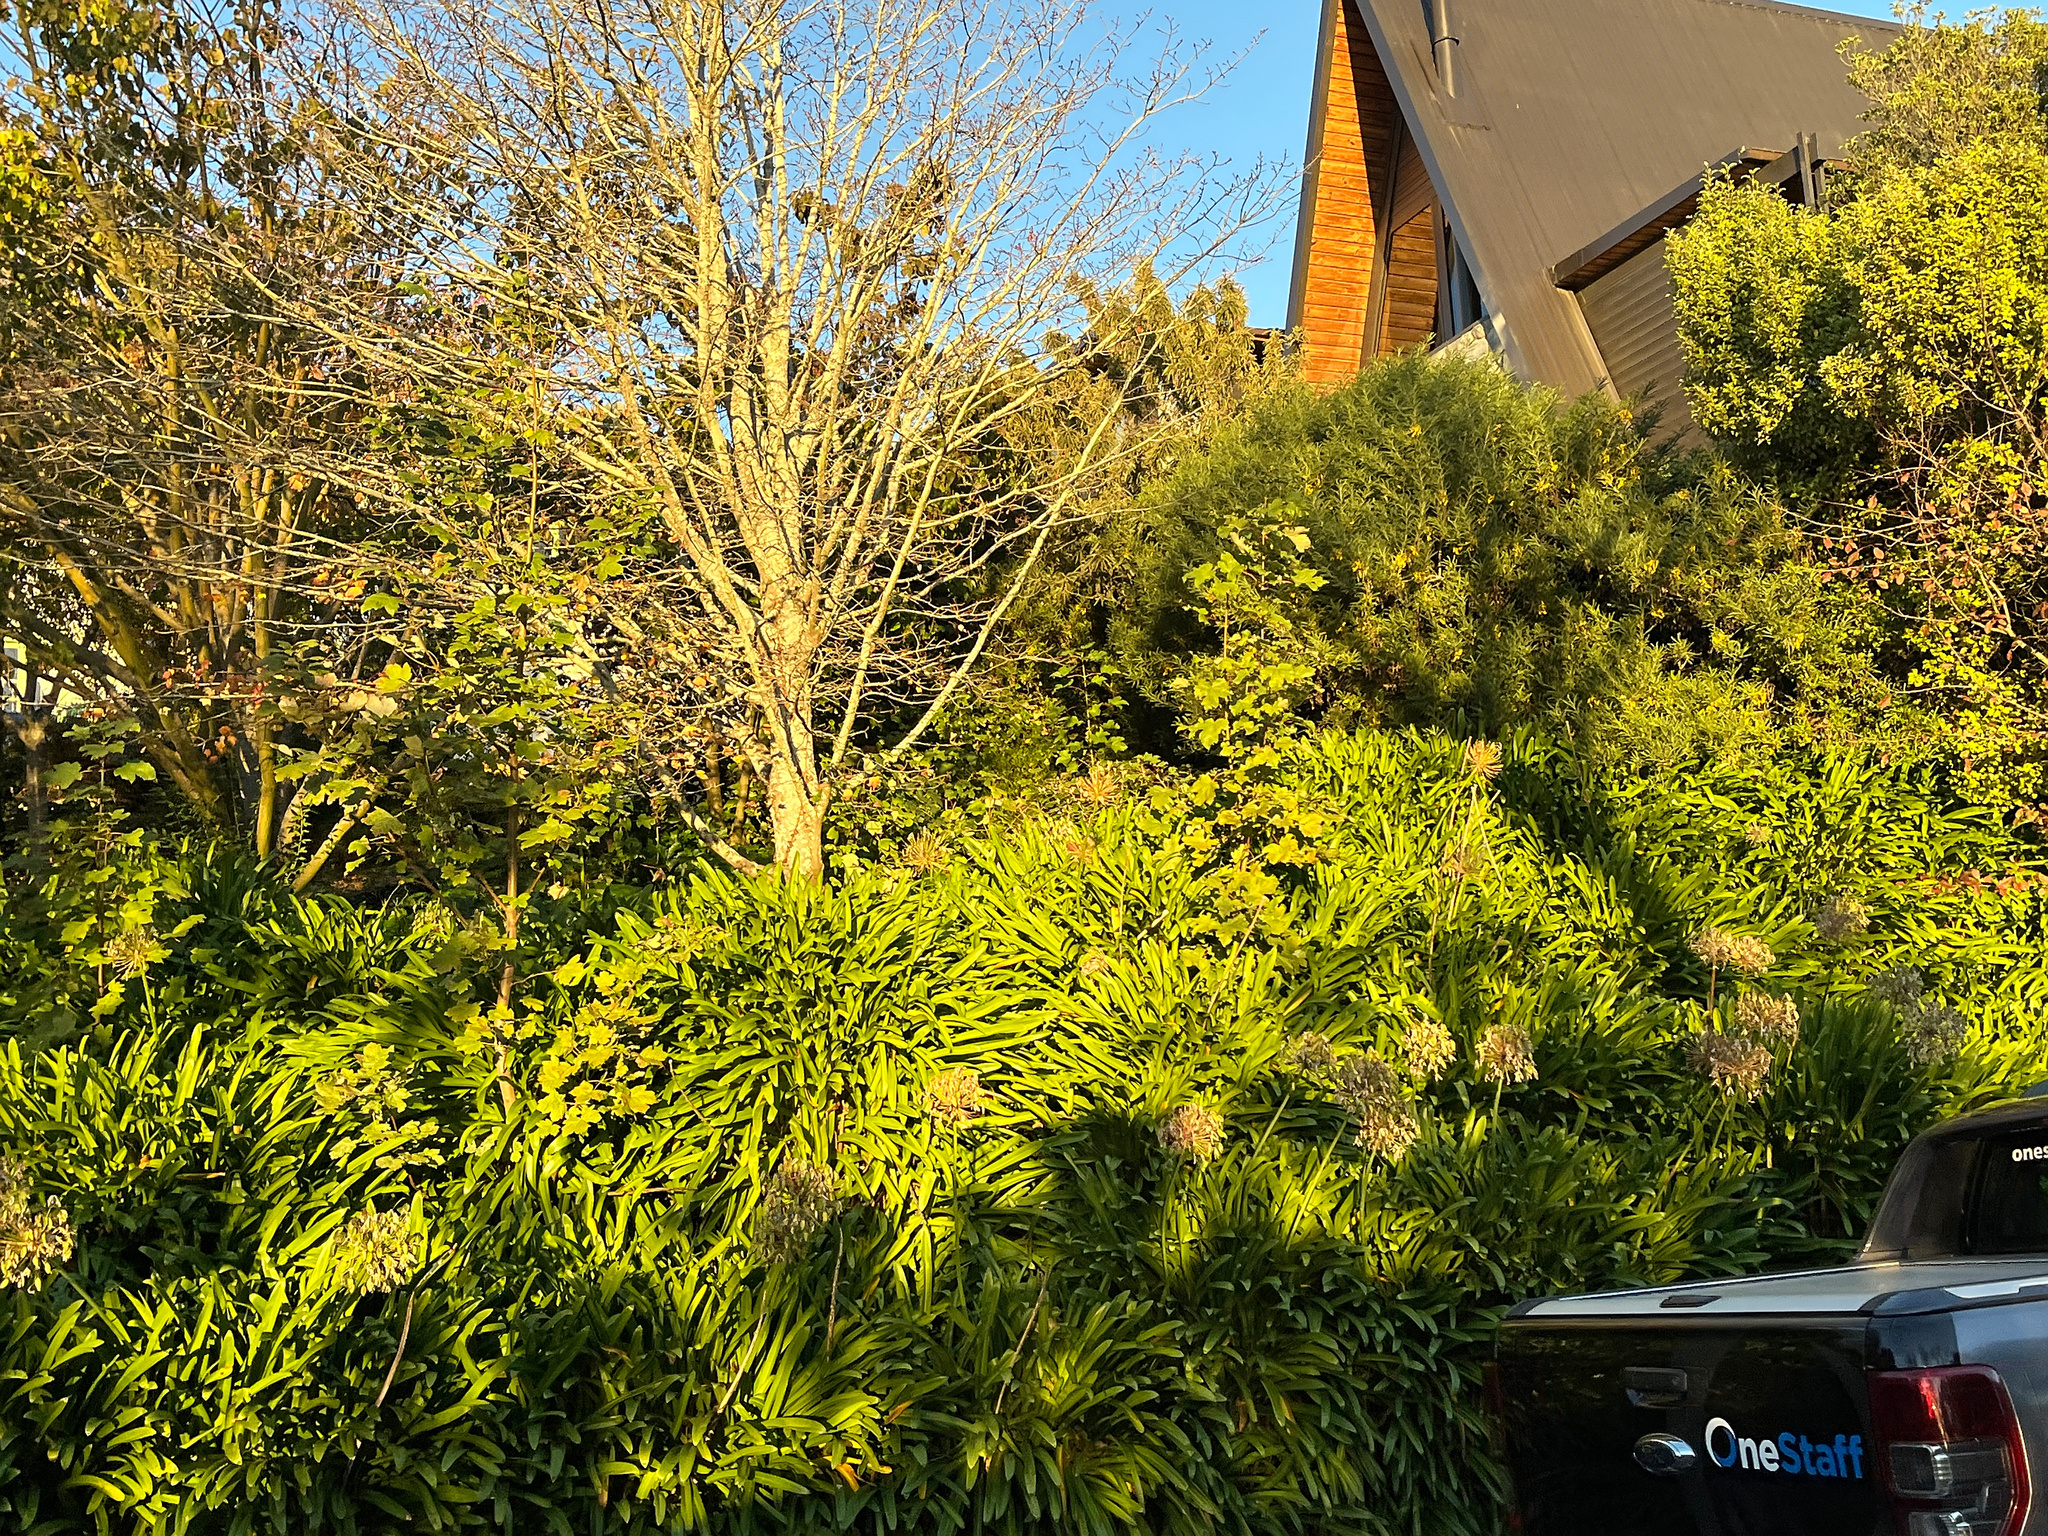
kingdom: Plantae
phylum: Tracheophyta
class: Liliopsida
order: Asparagales
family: Amaryllidaceae
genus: Agapanthus
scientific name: Agapanthus praecox
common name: African-lily
